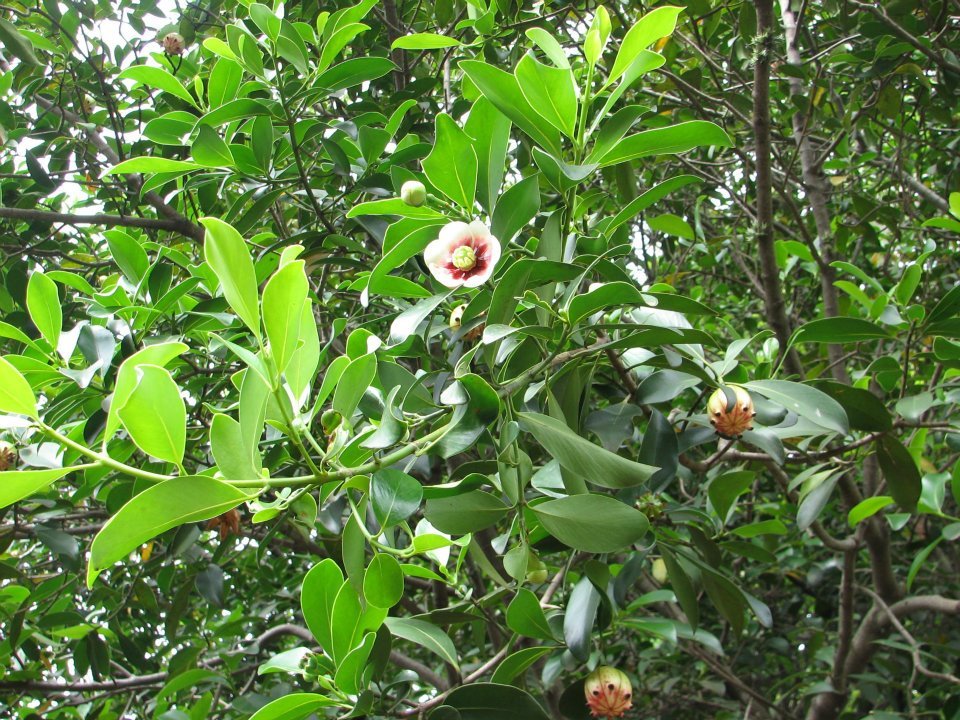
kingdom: Plantae
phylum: Tracheophyta
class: Magnoliopsida
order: Malpighiales
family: Clusiaceae
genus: Clusia
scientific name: Clusia lanceolata
